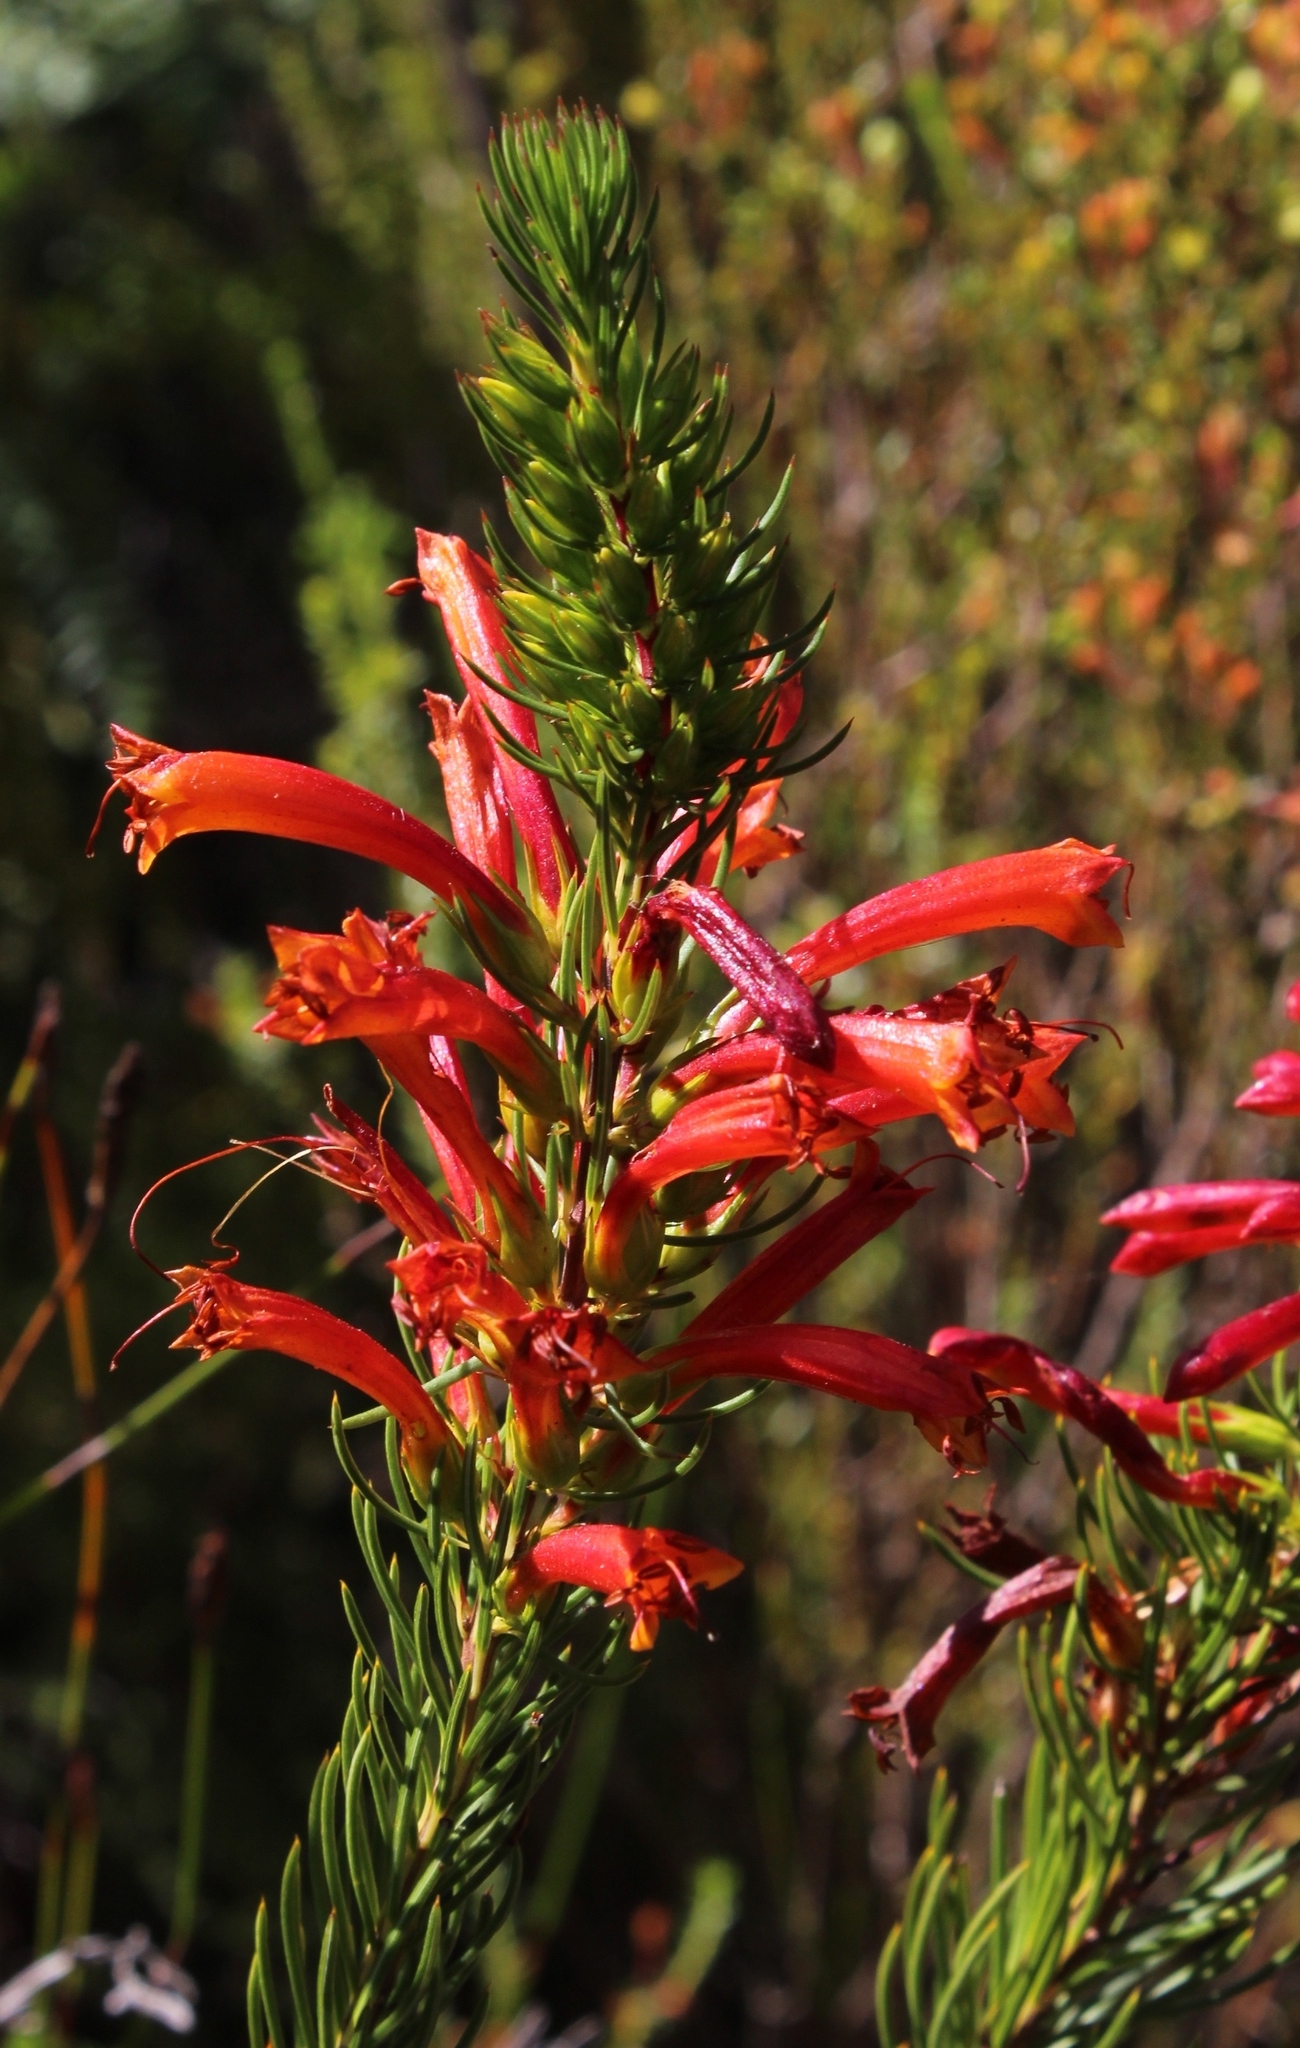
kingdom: Plantae
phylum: Tracheophyta
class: Magnoliopsida
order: Ericales
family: Ericaceae
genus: Erica
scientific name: Erica grandiflora
